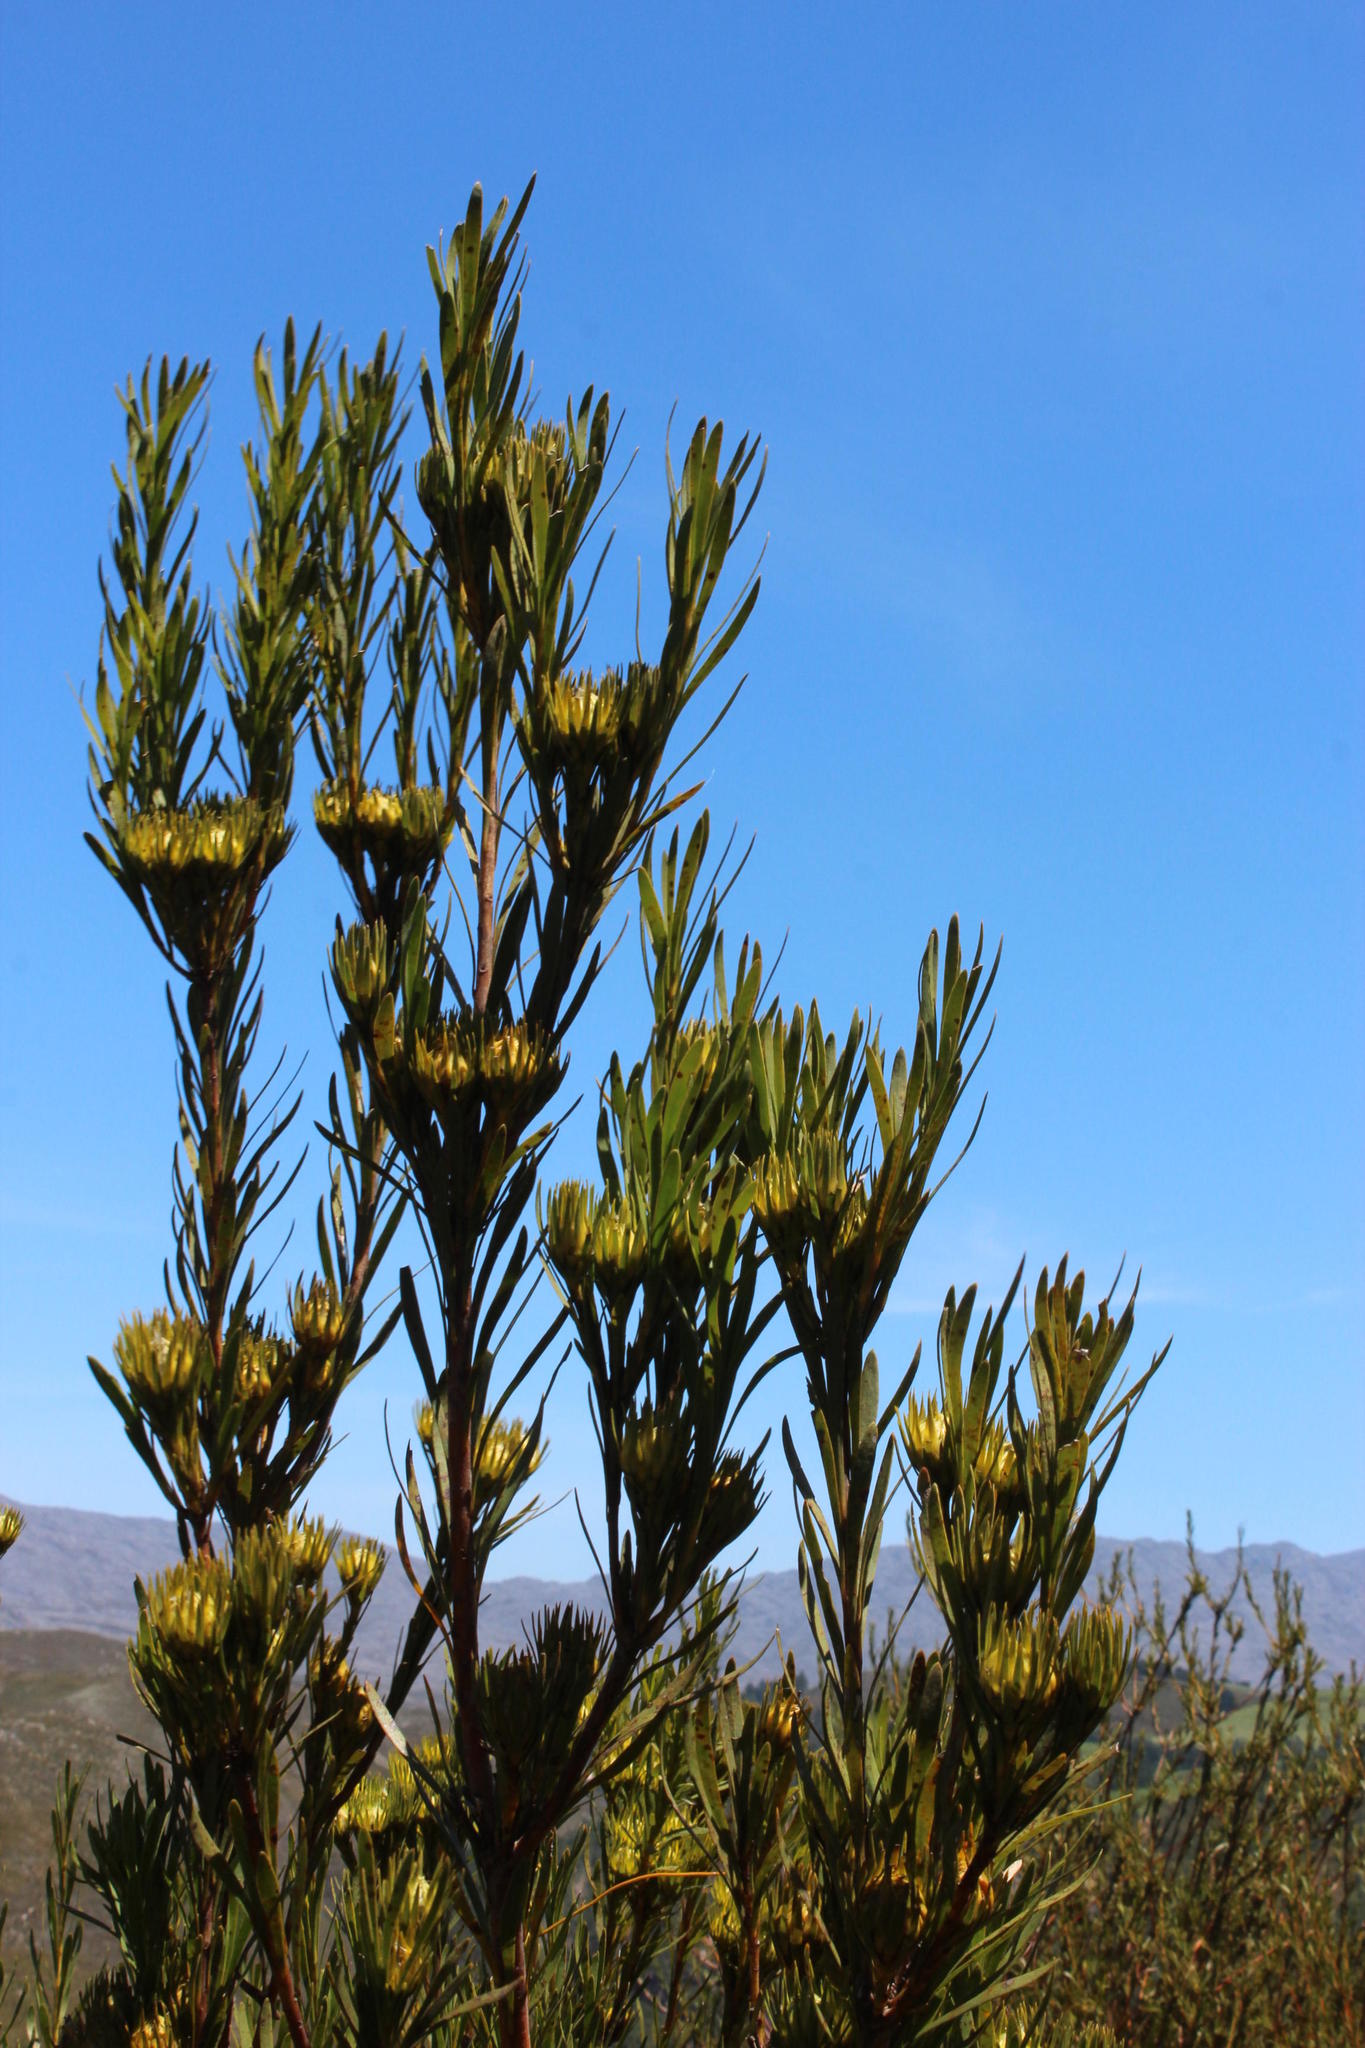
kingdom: Plantae
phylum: Tracheophyta
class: Magnoliopsida
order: Proteales
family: Proteaceae
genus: Aulax
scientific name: Aulax umbellata
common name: Broad-leaf featherbush
